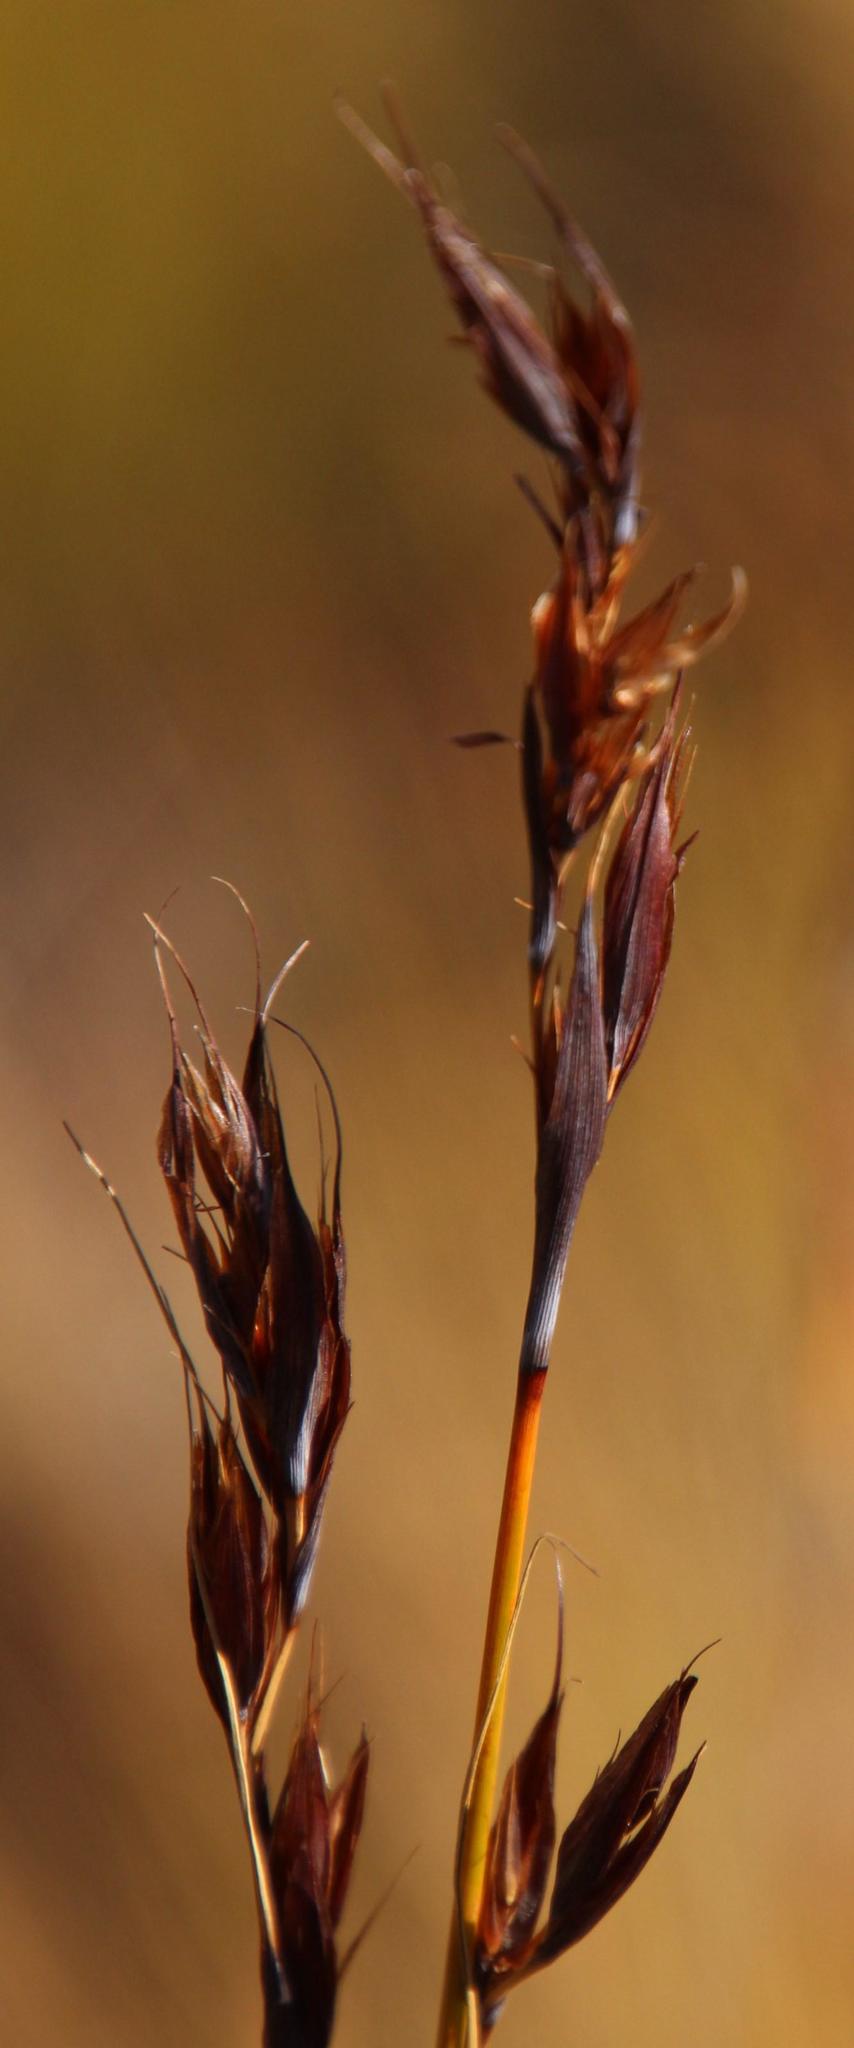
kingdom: Plantae
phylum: Tracheophyta
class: Liliopsida
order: Poales
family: Cyperaceae
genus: Tetraria
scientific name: Tetraria ustulata
